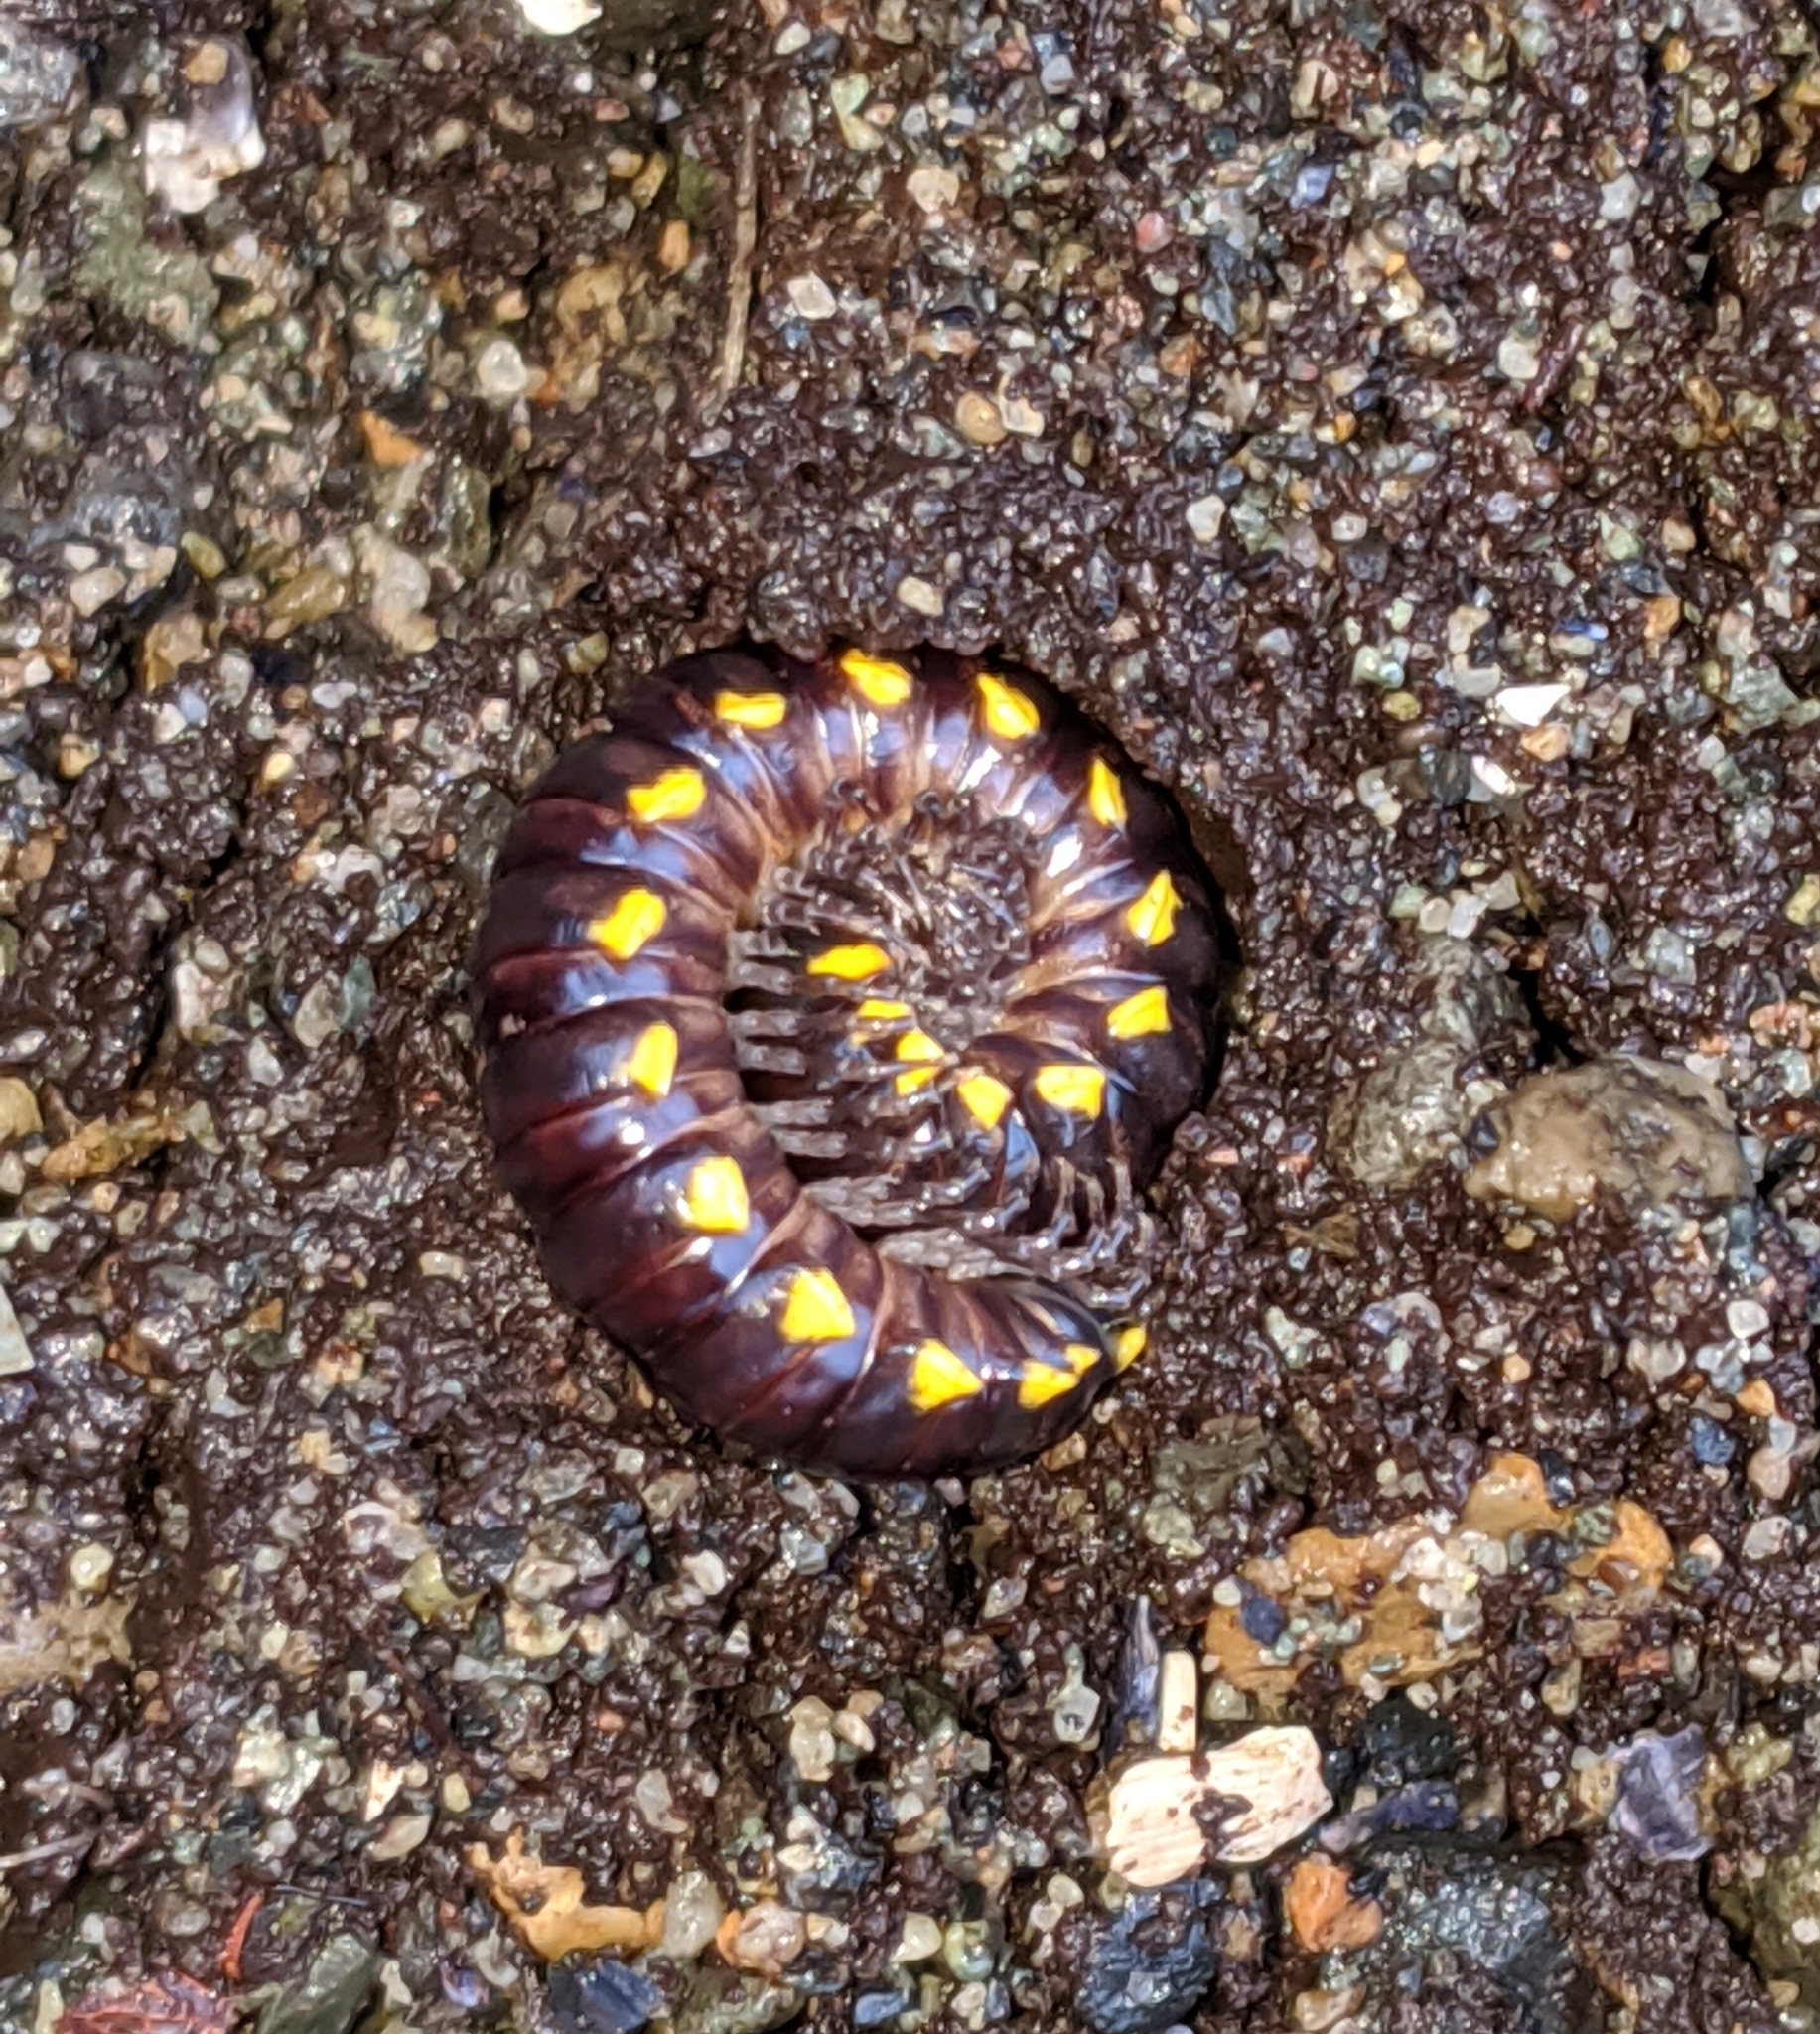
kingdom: Animalia
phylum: Arthropoda
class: Diplopoda
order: Polydesmida
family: Xystodesmidae
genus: Harpaphe
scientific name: Harpaphe haydeniana
